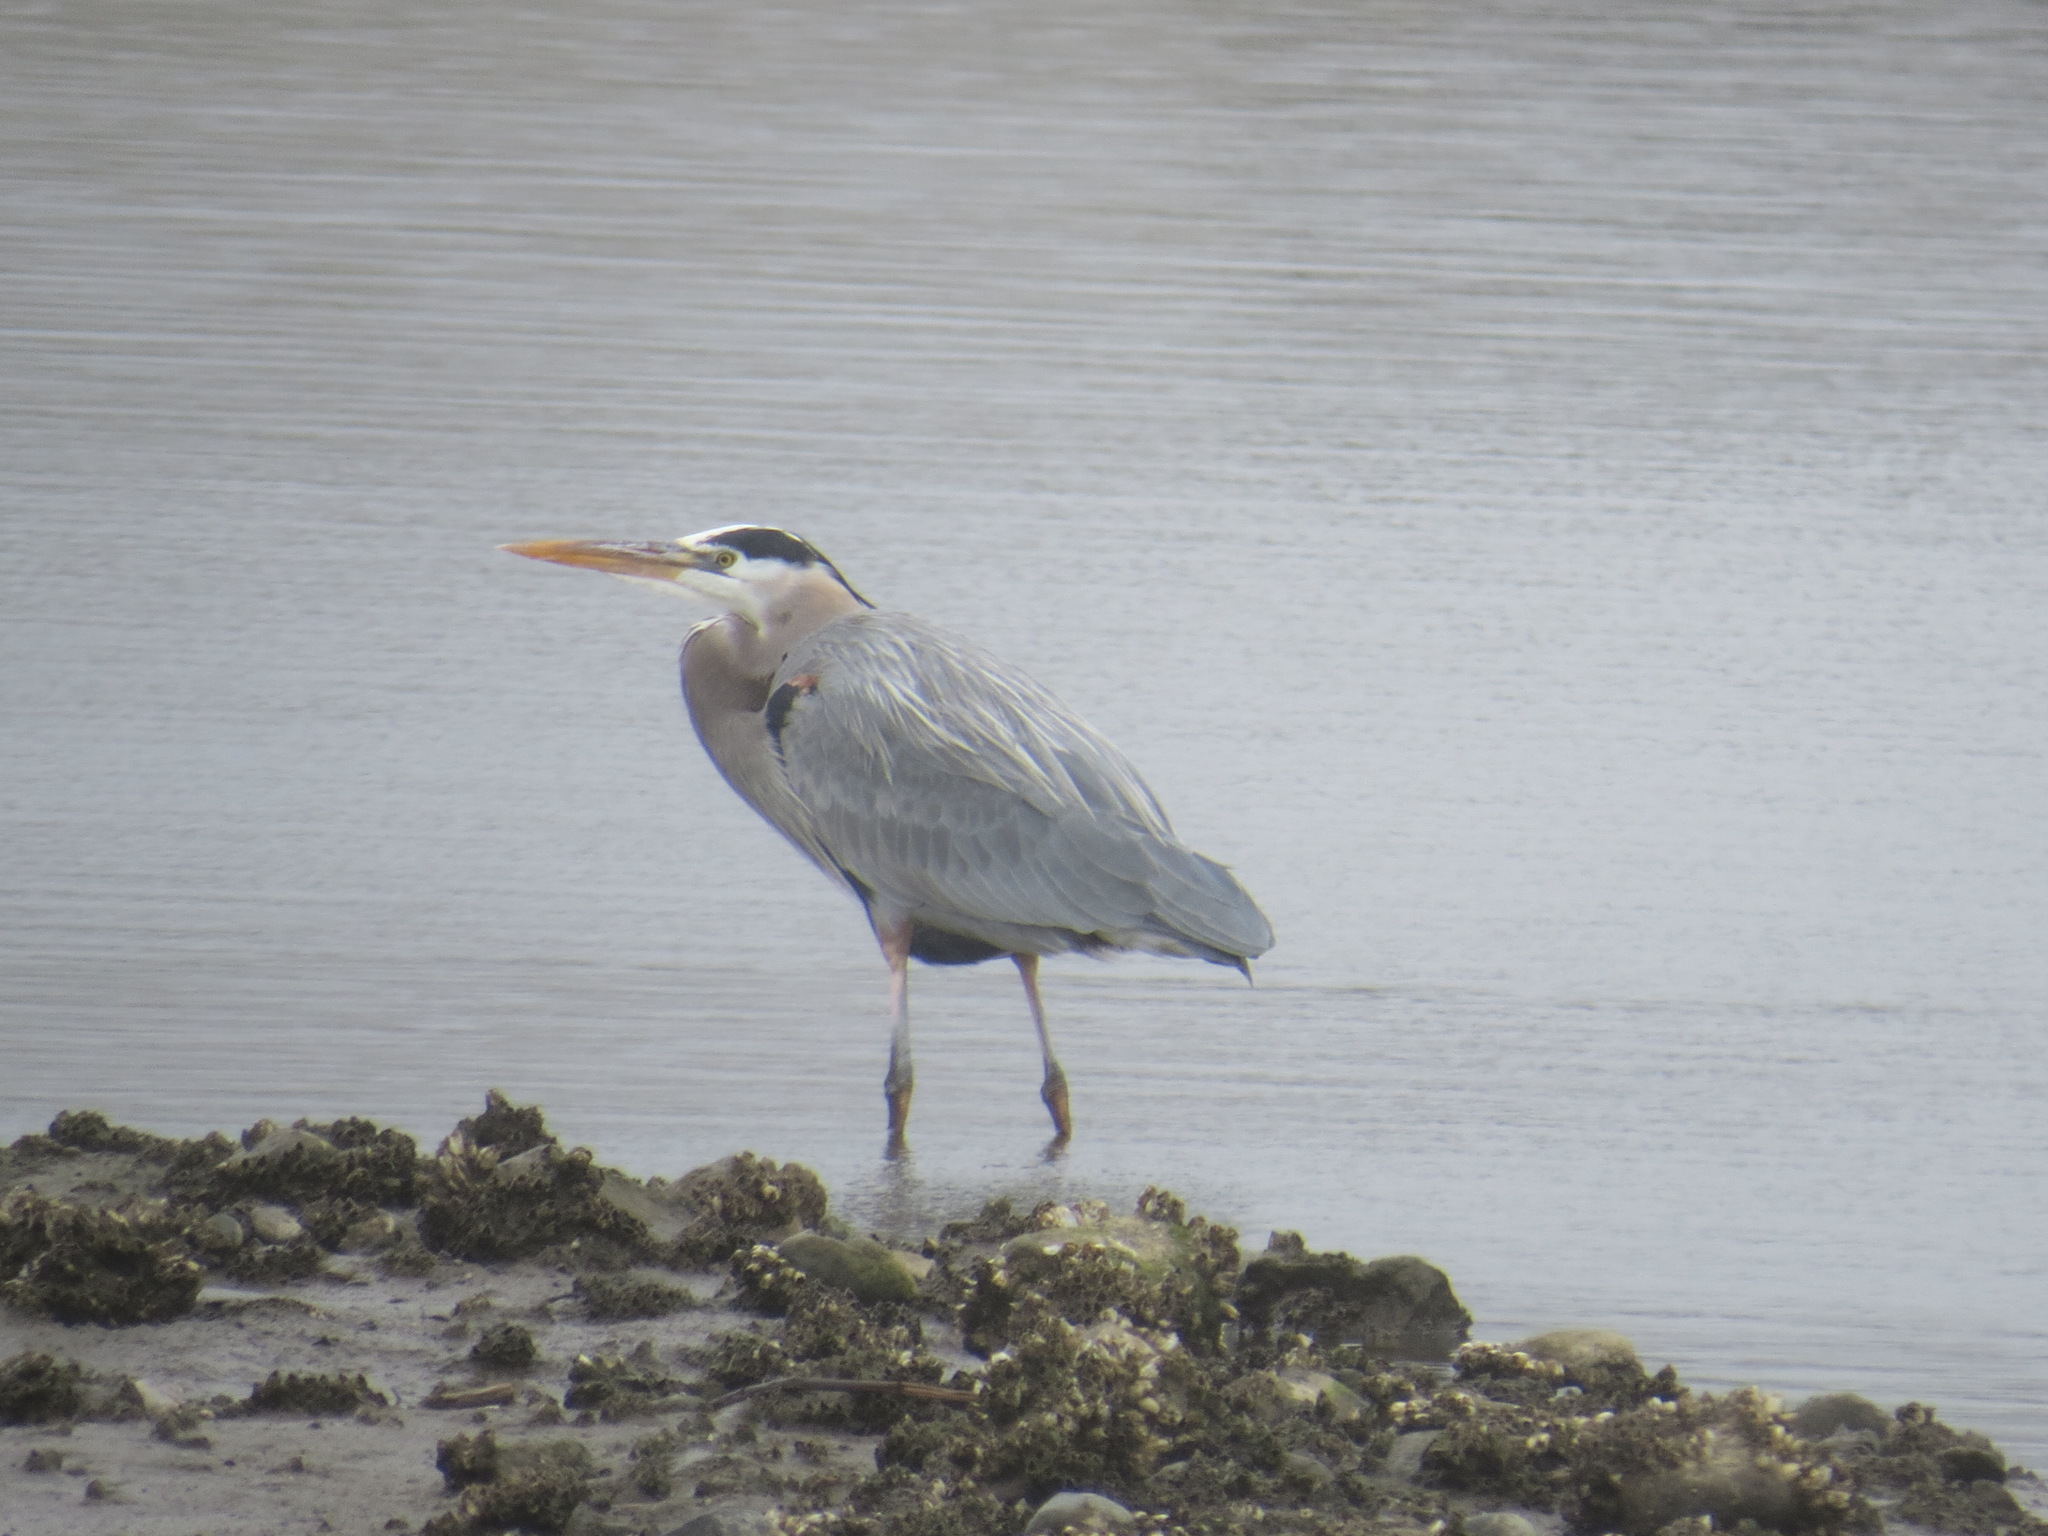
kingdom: Animalia
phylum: Chordata
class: Aves
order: Pelecaniformes
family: Ardeidae
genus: Ardea
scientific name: Ardea herodias
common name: Great blue heron
